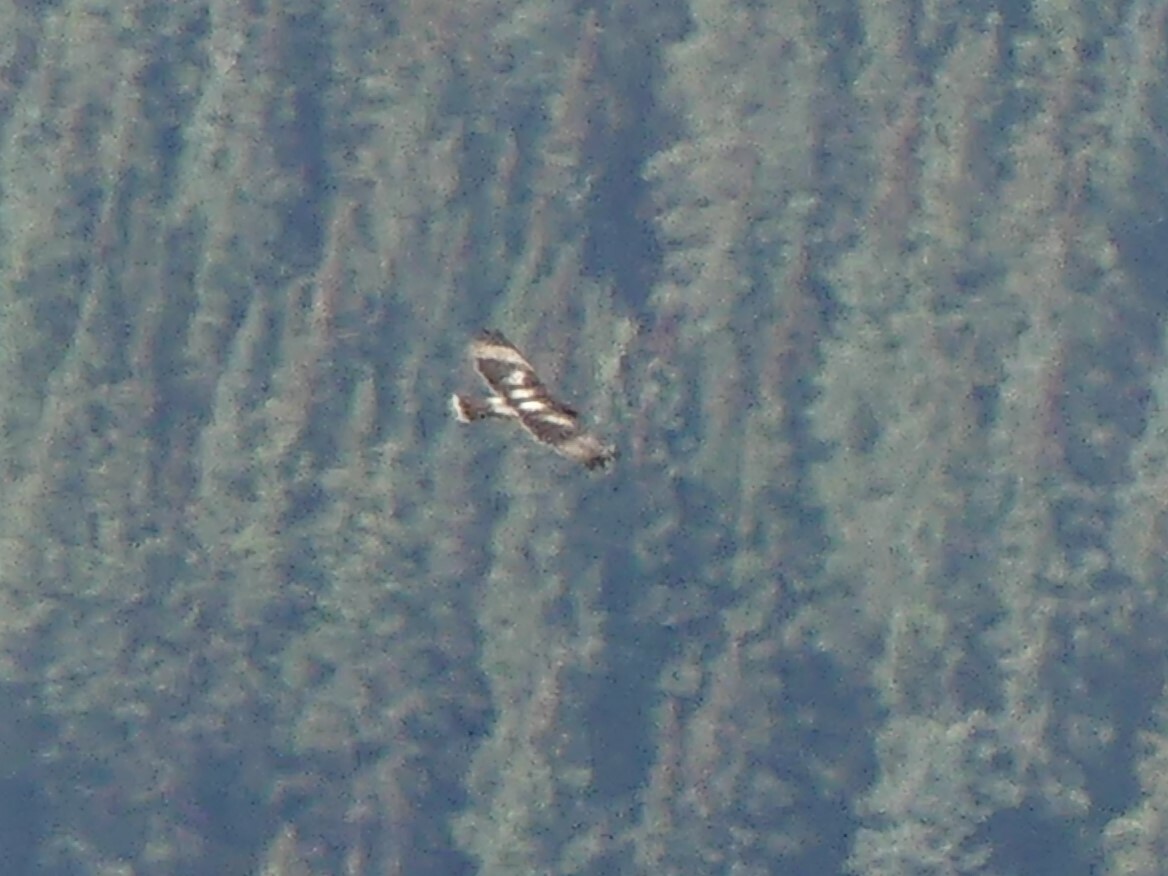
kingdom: Animalia
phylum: Chordata
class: Aves
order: Accipitriformes
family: Accipitridae
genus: Buteo
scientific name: Buteo jamaicensis
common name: Red-tailed hawk
